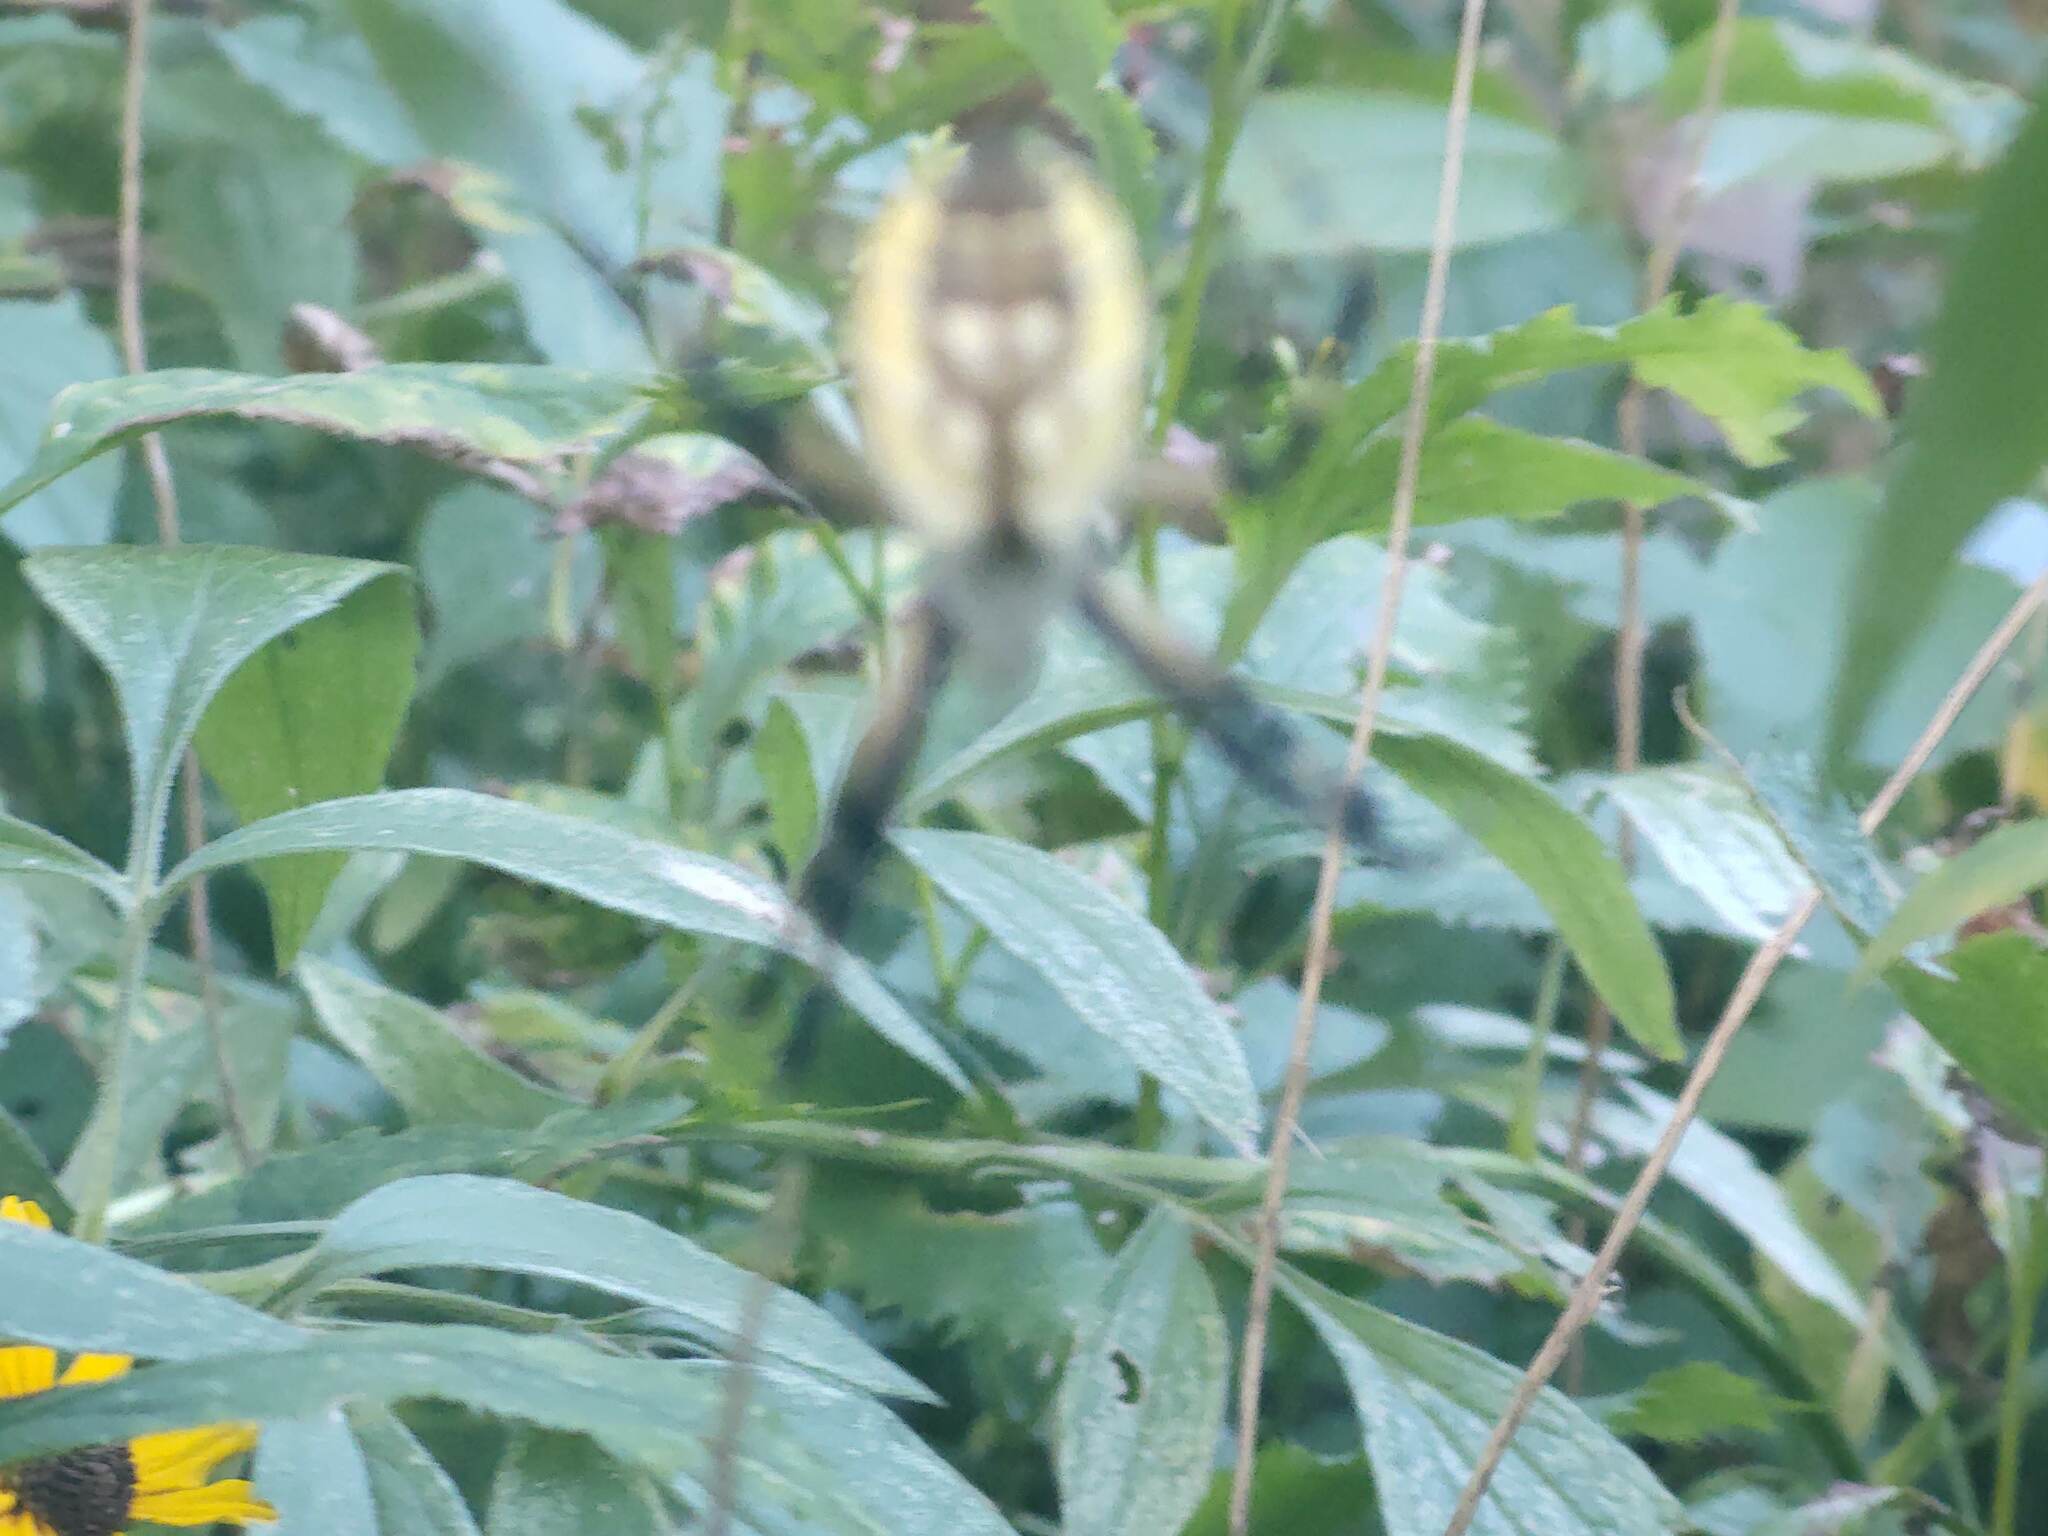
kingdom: Animalia
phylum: Arthropoda
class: Arachnida
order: Araneae
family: Araneidae
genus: Argiope
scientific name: Argiope aurantia
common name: Orb weavers
